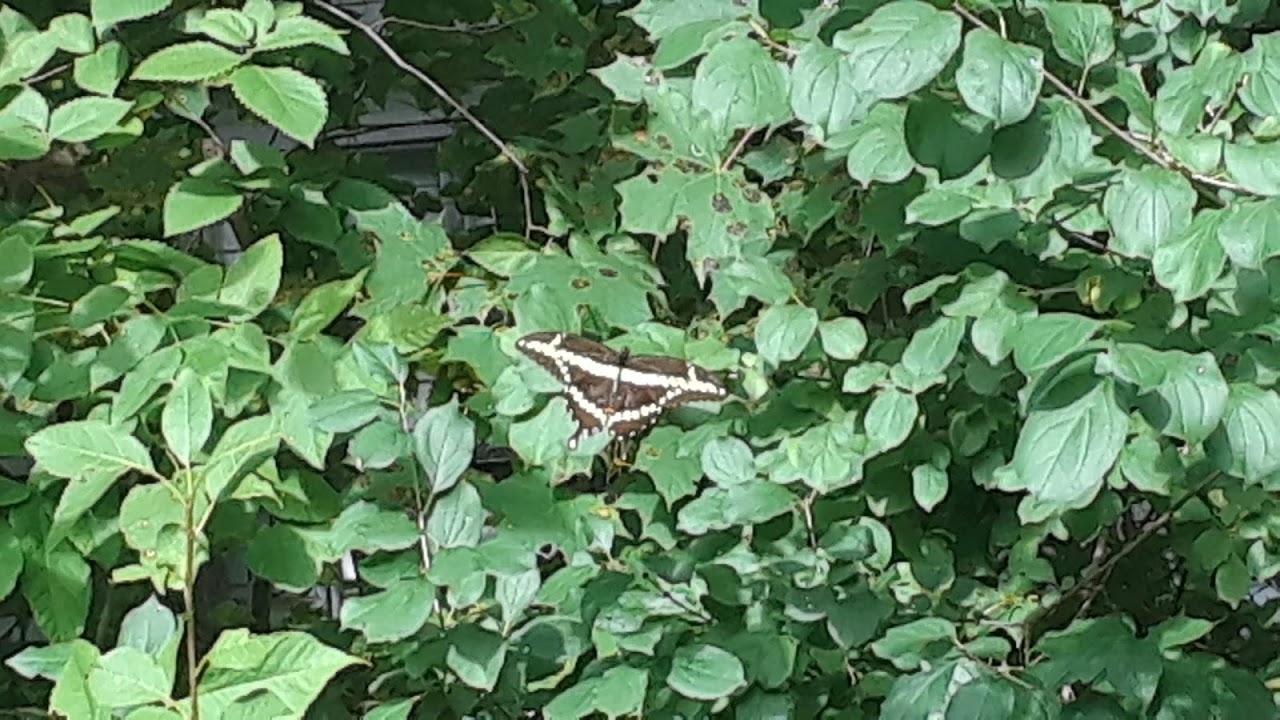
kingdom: Animalia
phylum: Arthropoda
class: Insecta
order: Lepidoptera
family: Papilionidae
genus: Papilio
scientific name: Papilio cresphontes
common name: Giant swallowtail
